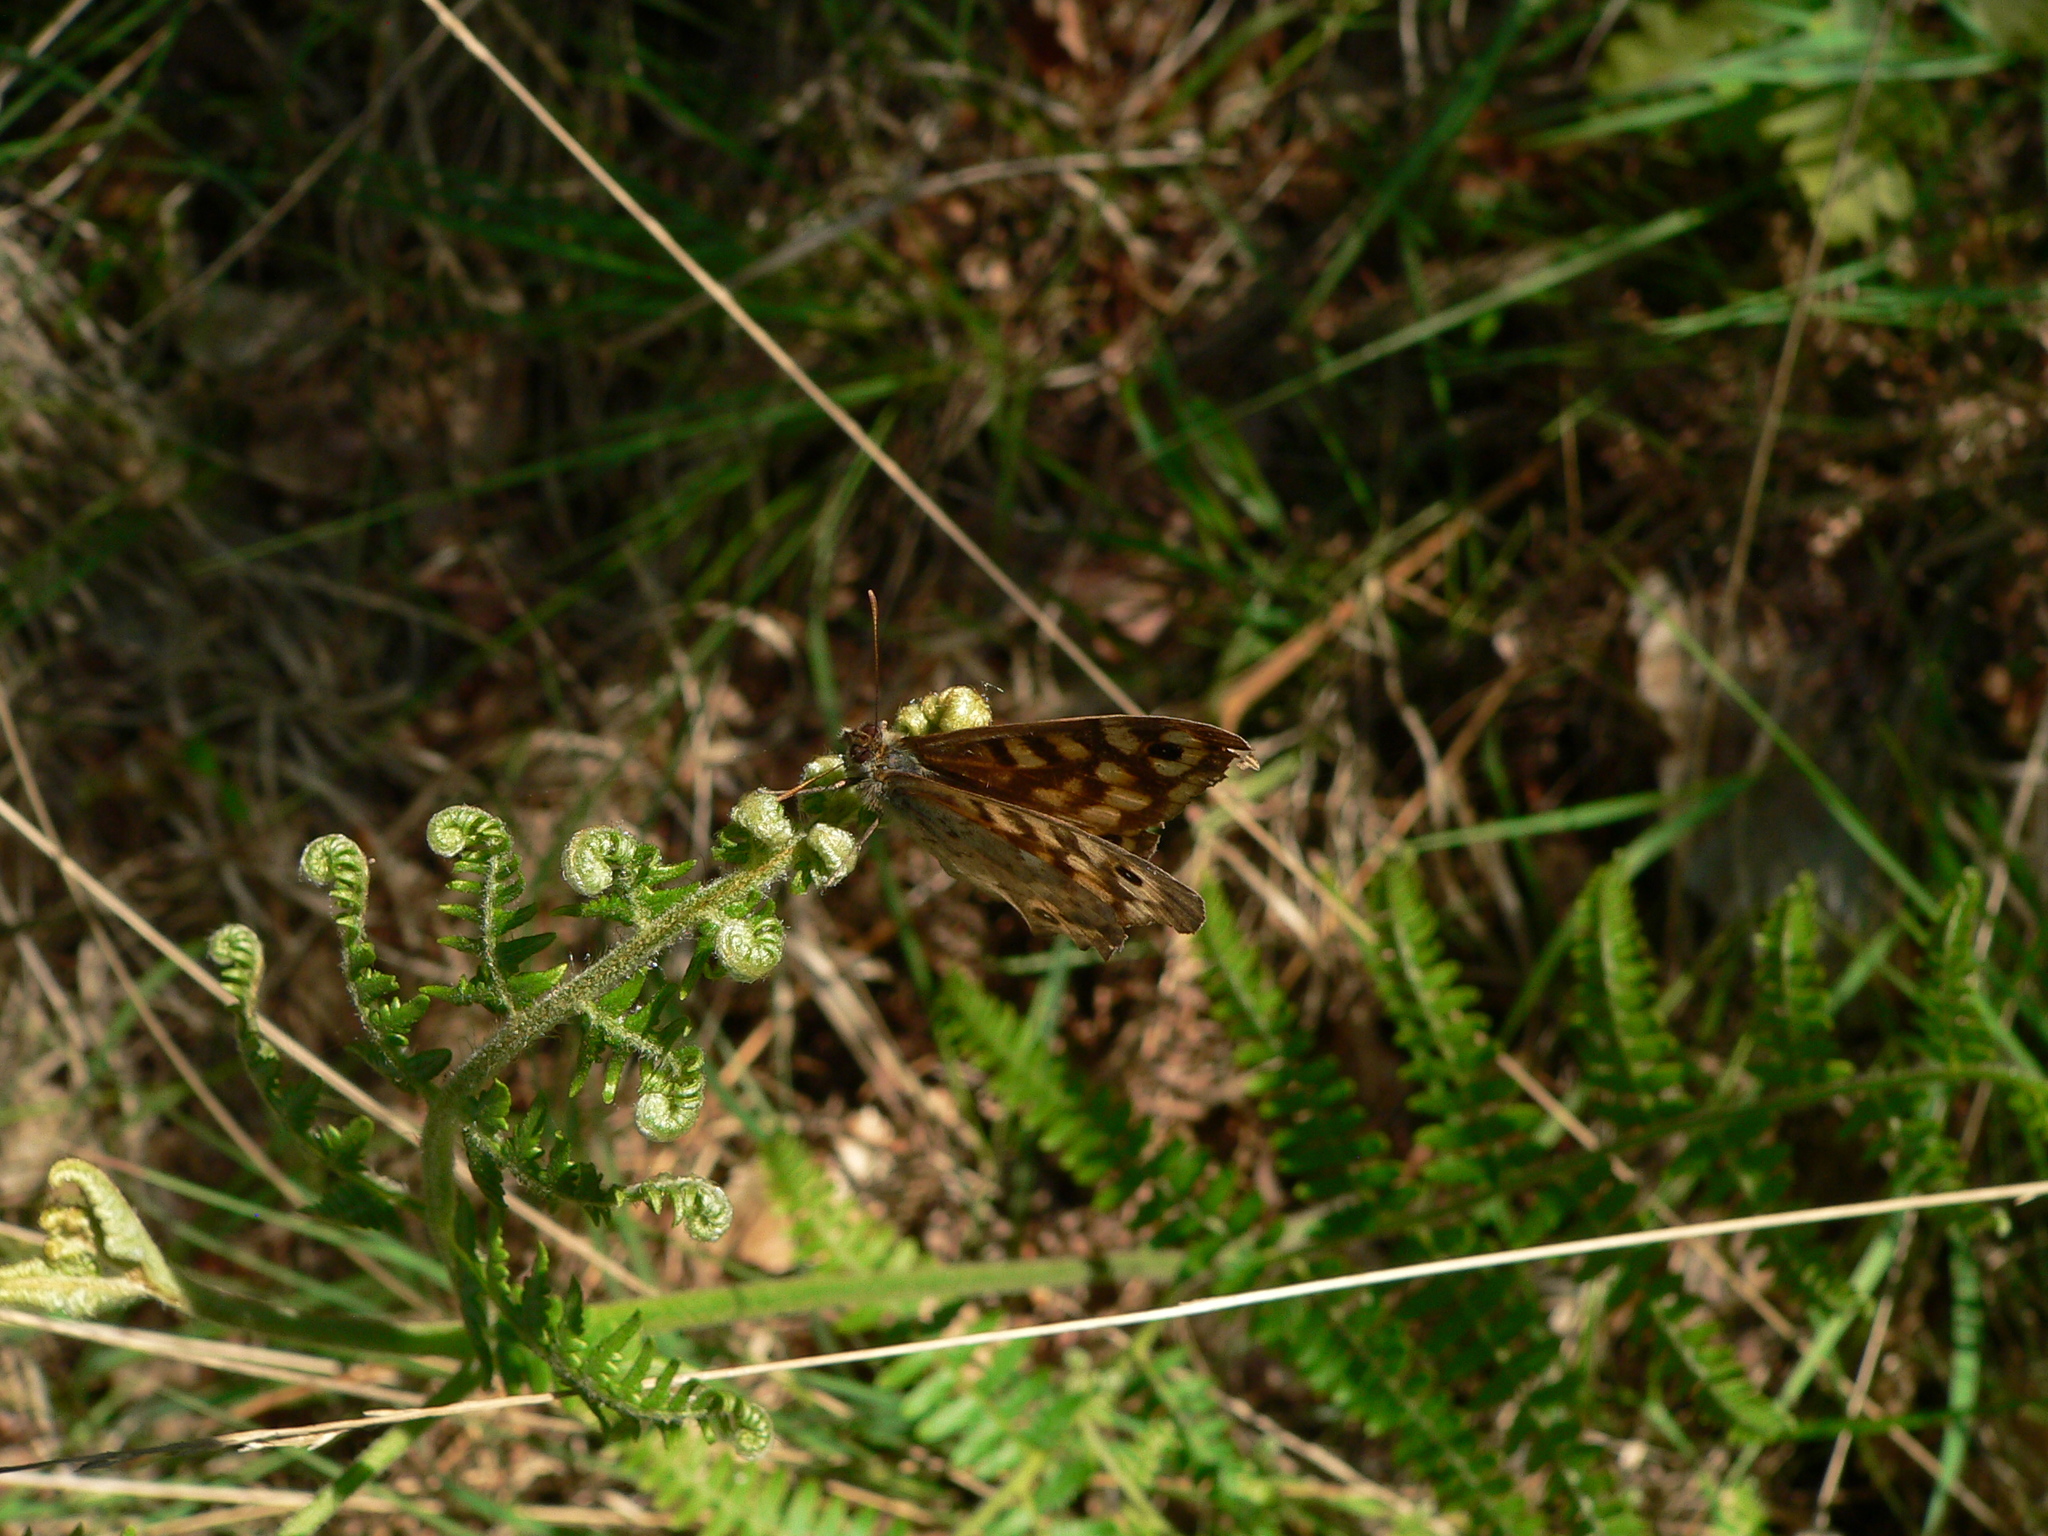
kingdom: Animalia
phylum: Arthropoda
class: Insecta
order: Lepidoptera
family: Nymphalidae
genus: Pararge
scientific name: Pararge aegeria
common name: Speckled wood
